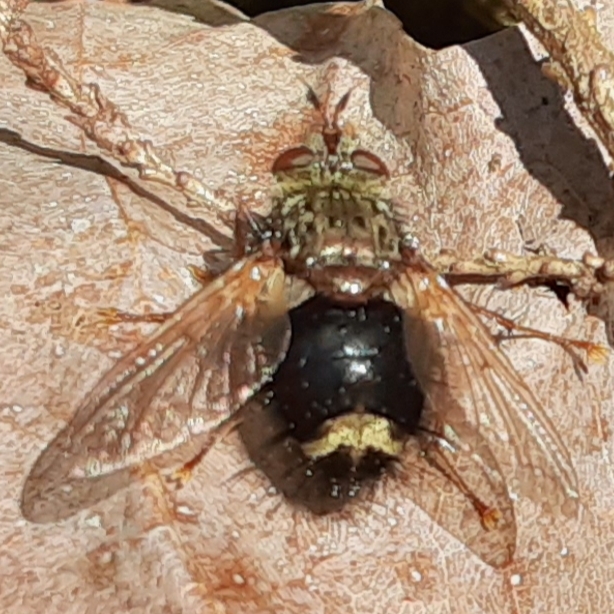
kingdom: Animalia
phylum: Arthropoda
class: Insecta
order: Diptera
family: Tachinidae
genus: Epalpus
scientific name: Epalpus signifer
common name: Early tachinid fly
